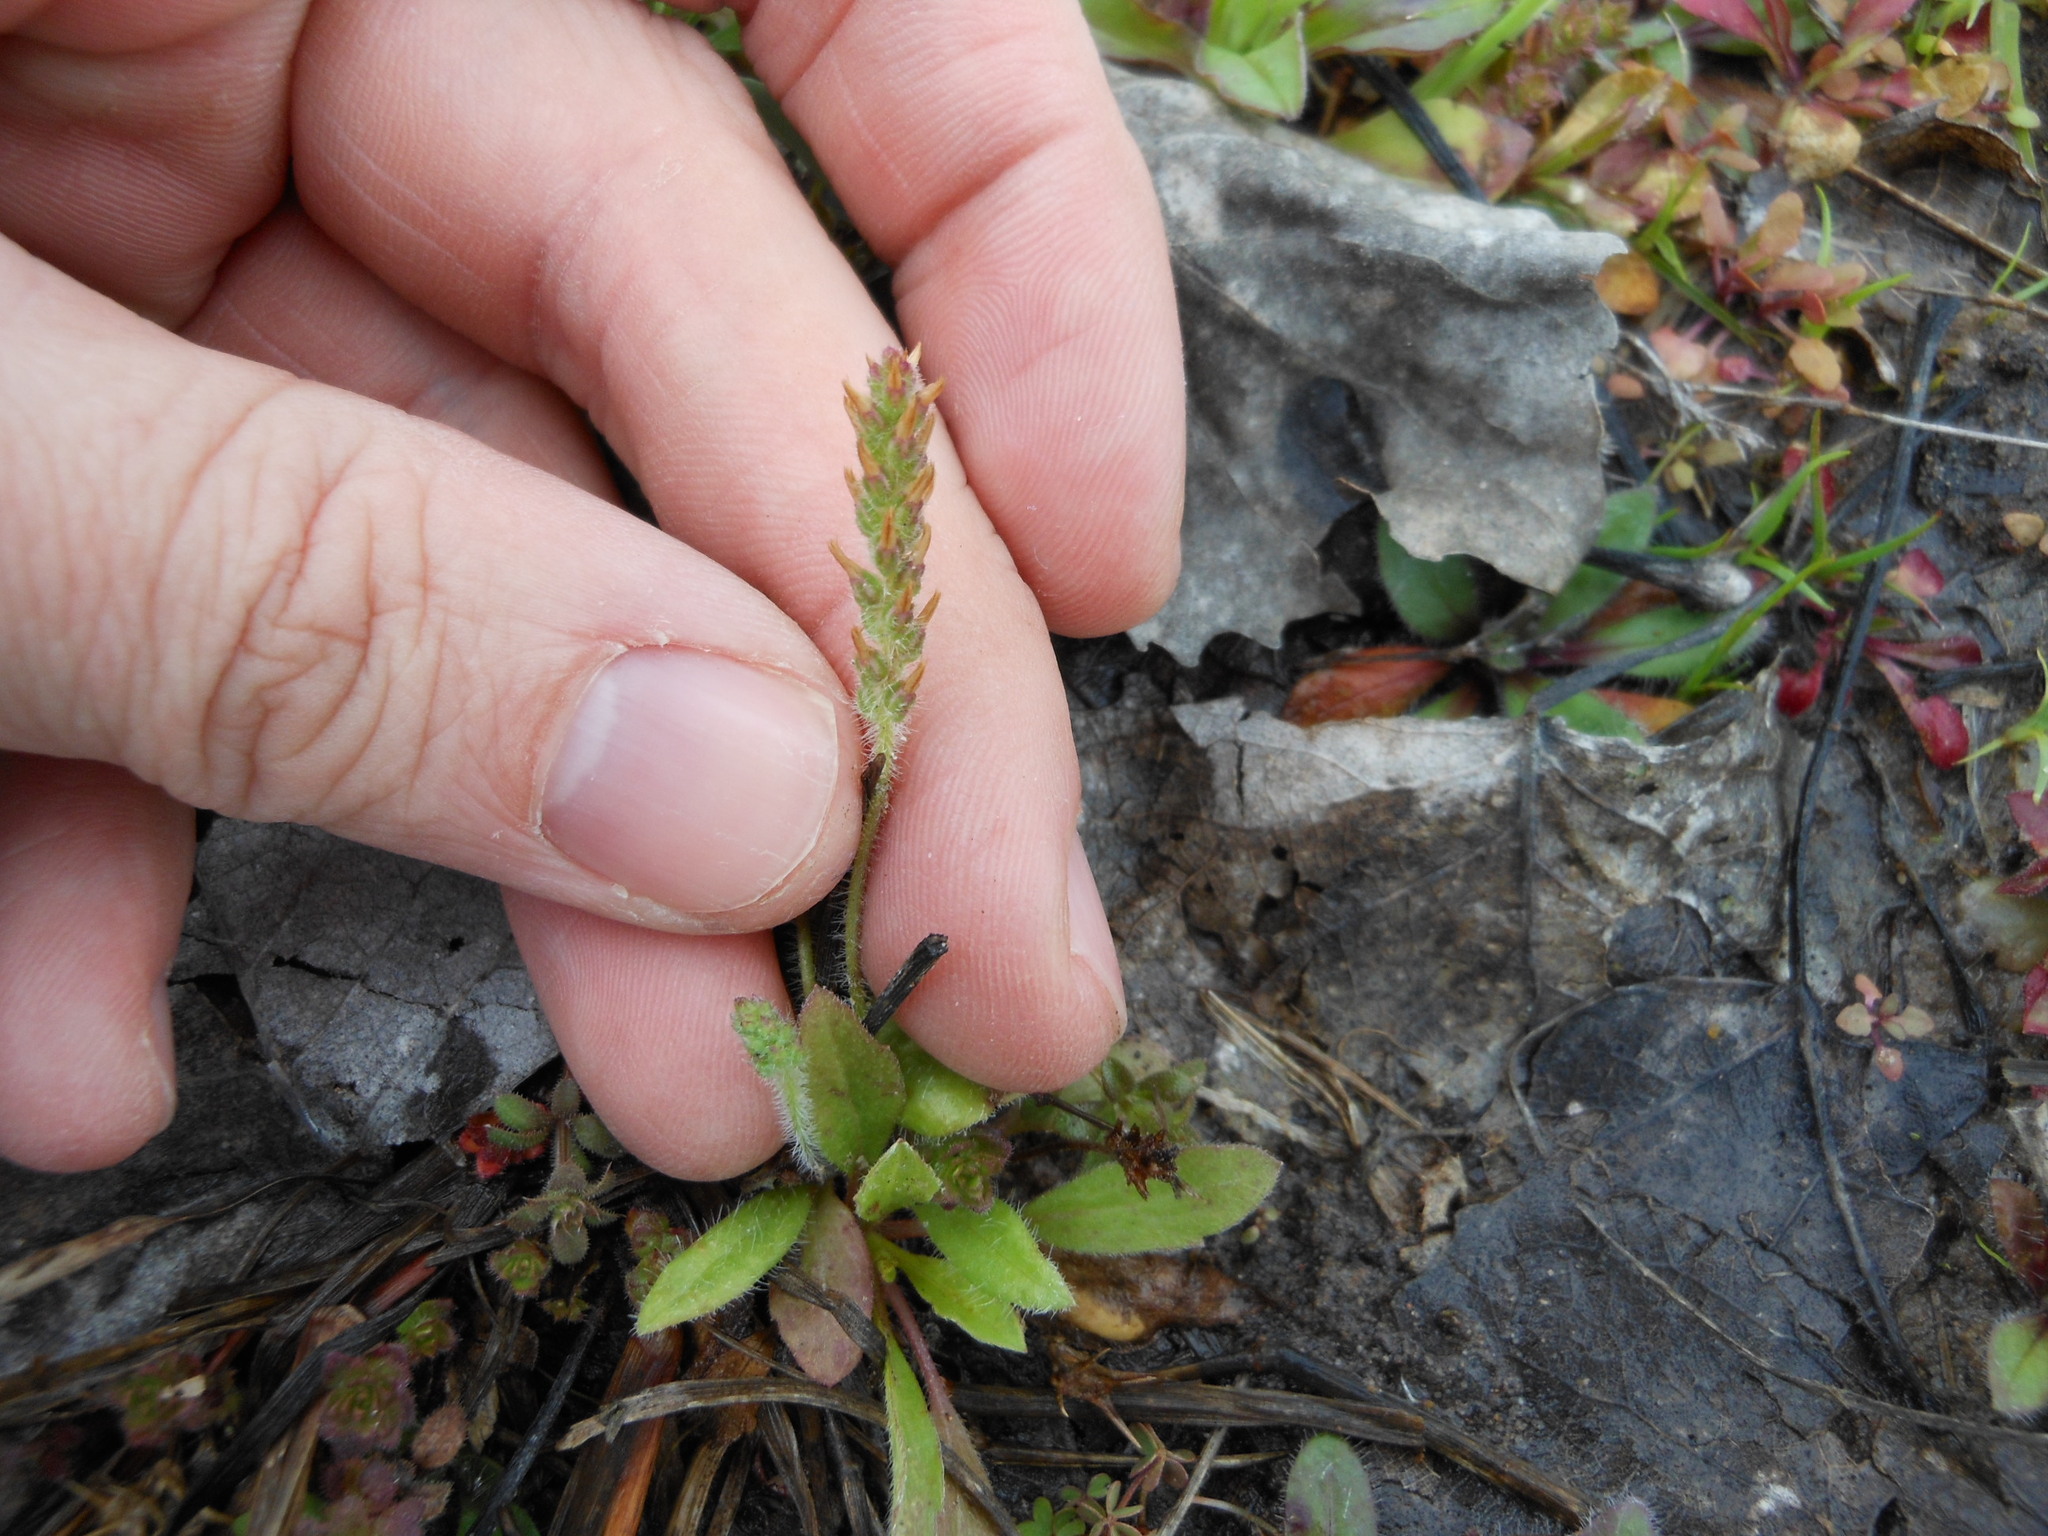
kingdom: Plantae
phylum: Tracheophyta
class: Magnoliopsida
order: Lamiales
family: Plantaginaceae
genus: Plantago
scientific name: Plantago virginica
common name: Hoary plantain
